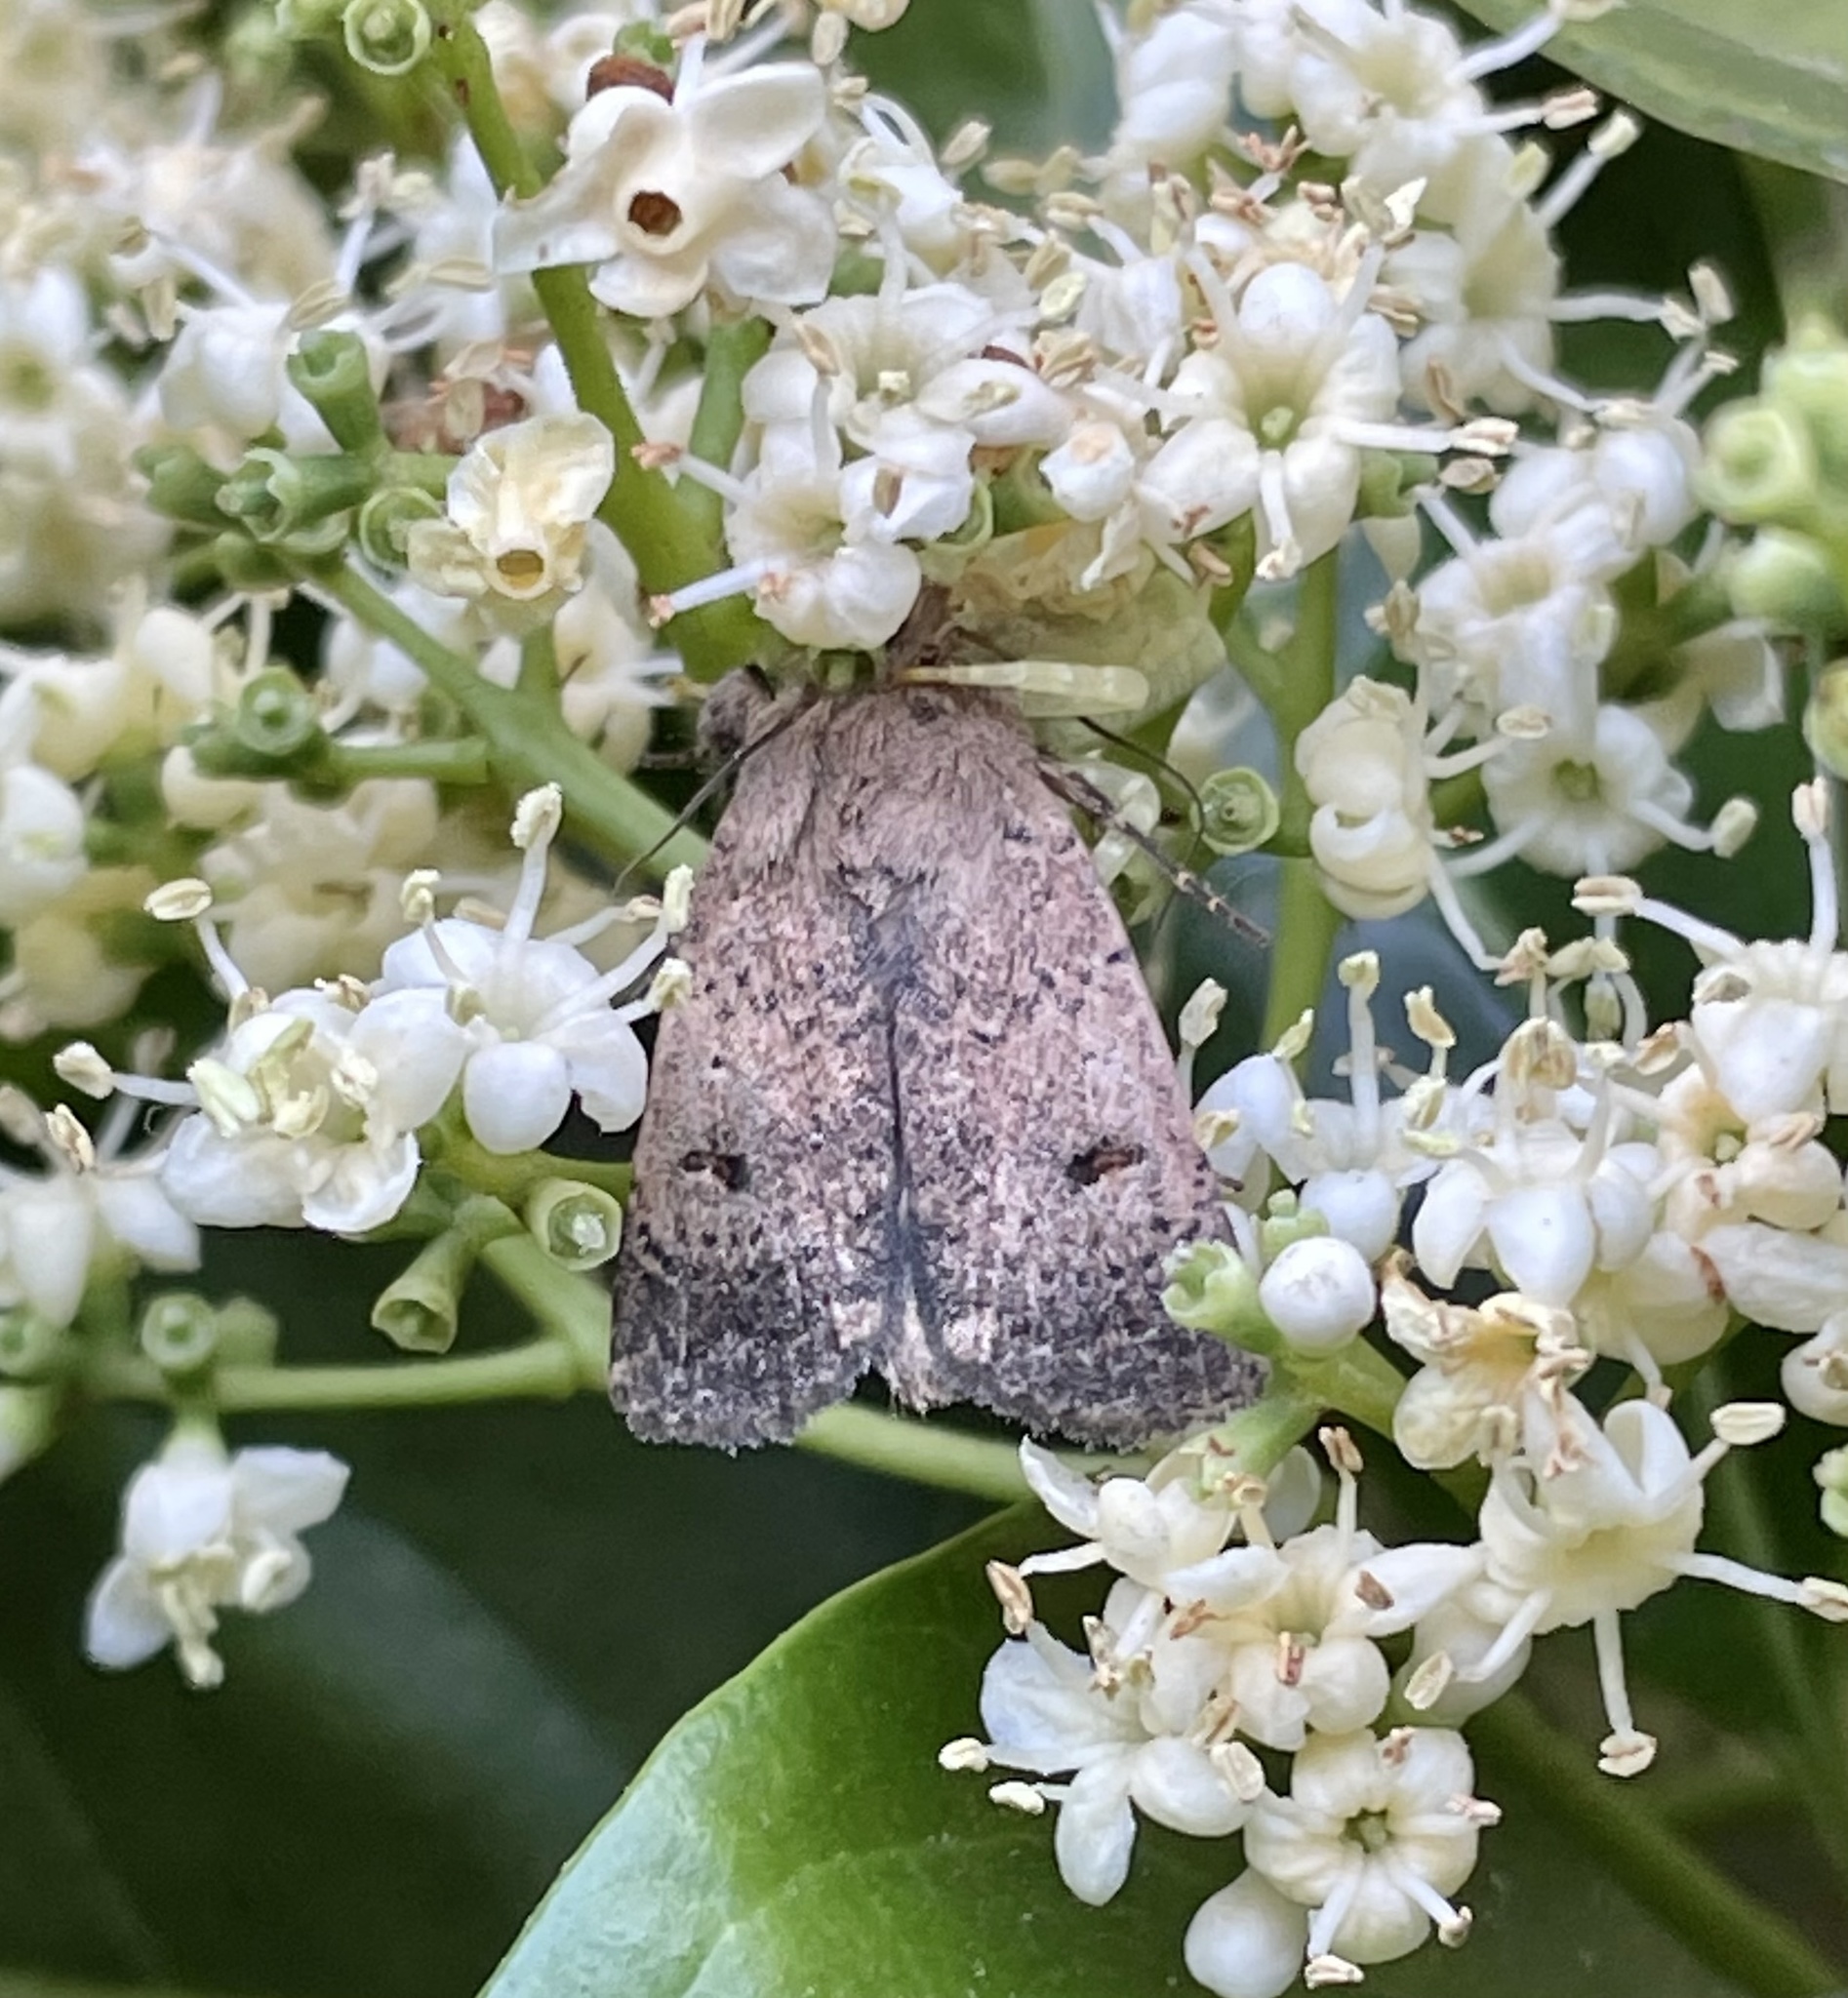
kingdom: Animalia
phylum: Arthropoda
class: Arachnida
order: Araneae
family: Thomisidae
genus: Thomisus
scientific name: Thomisus spectabilis
